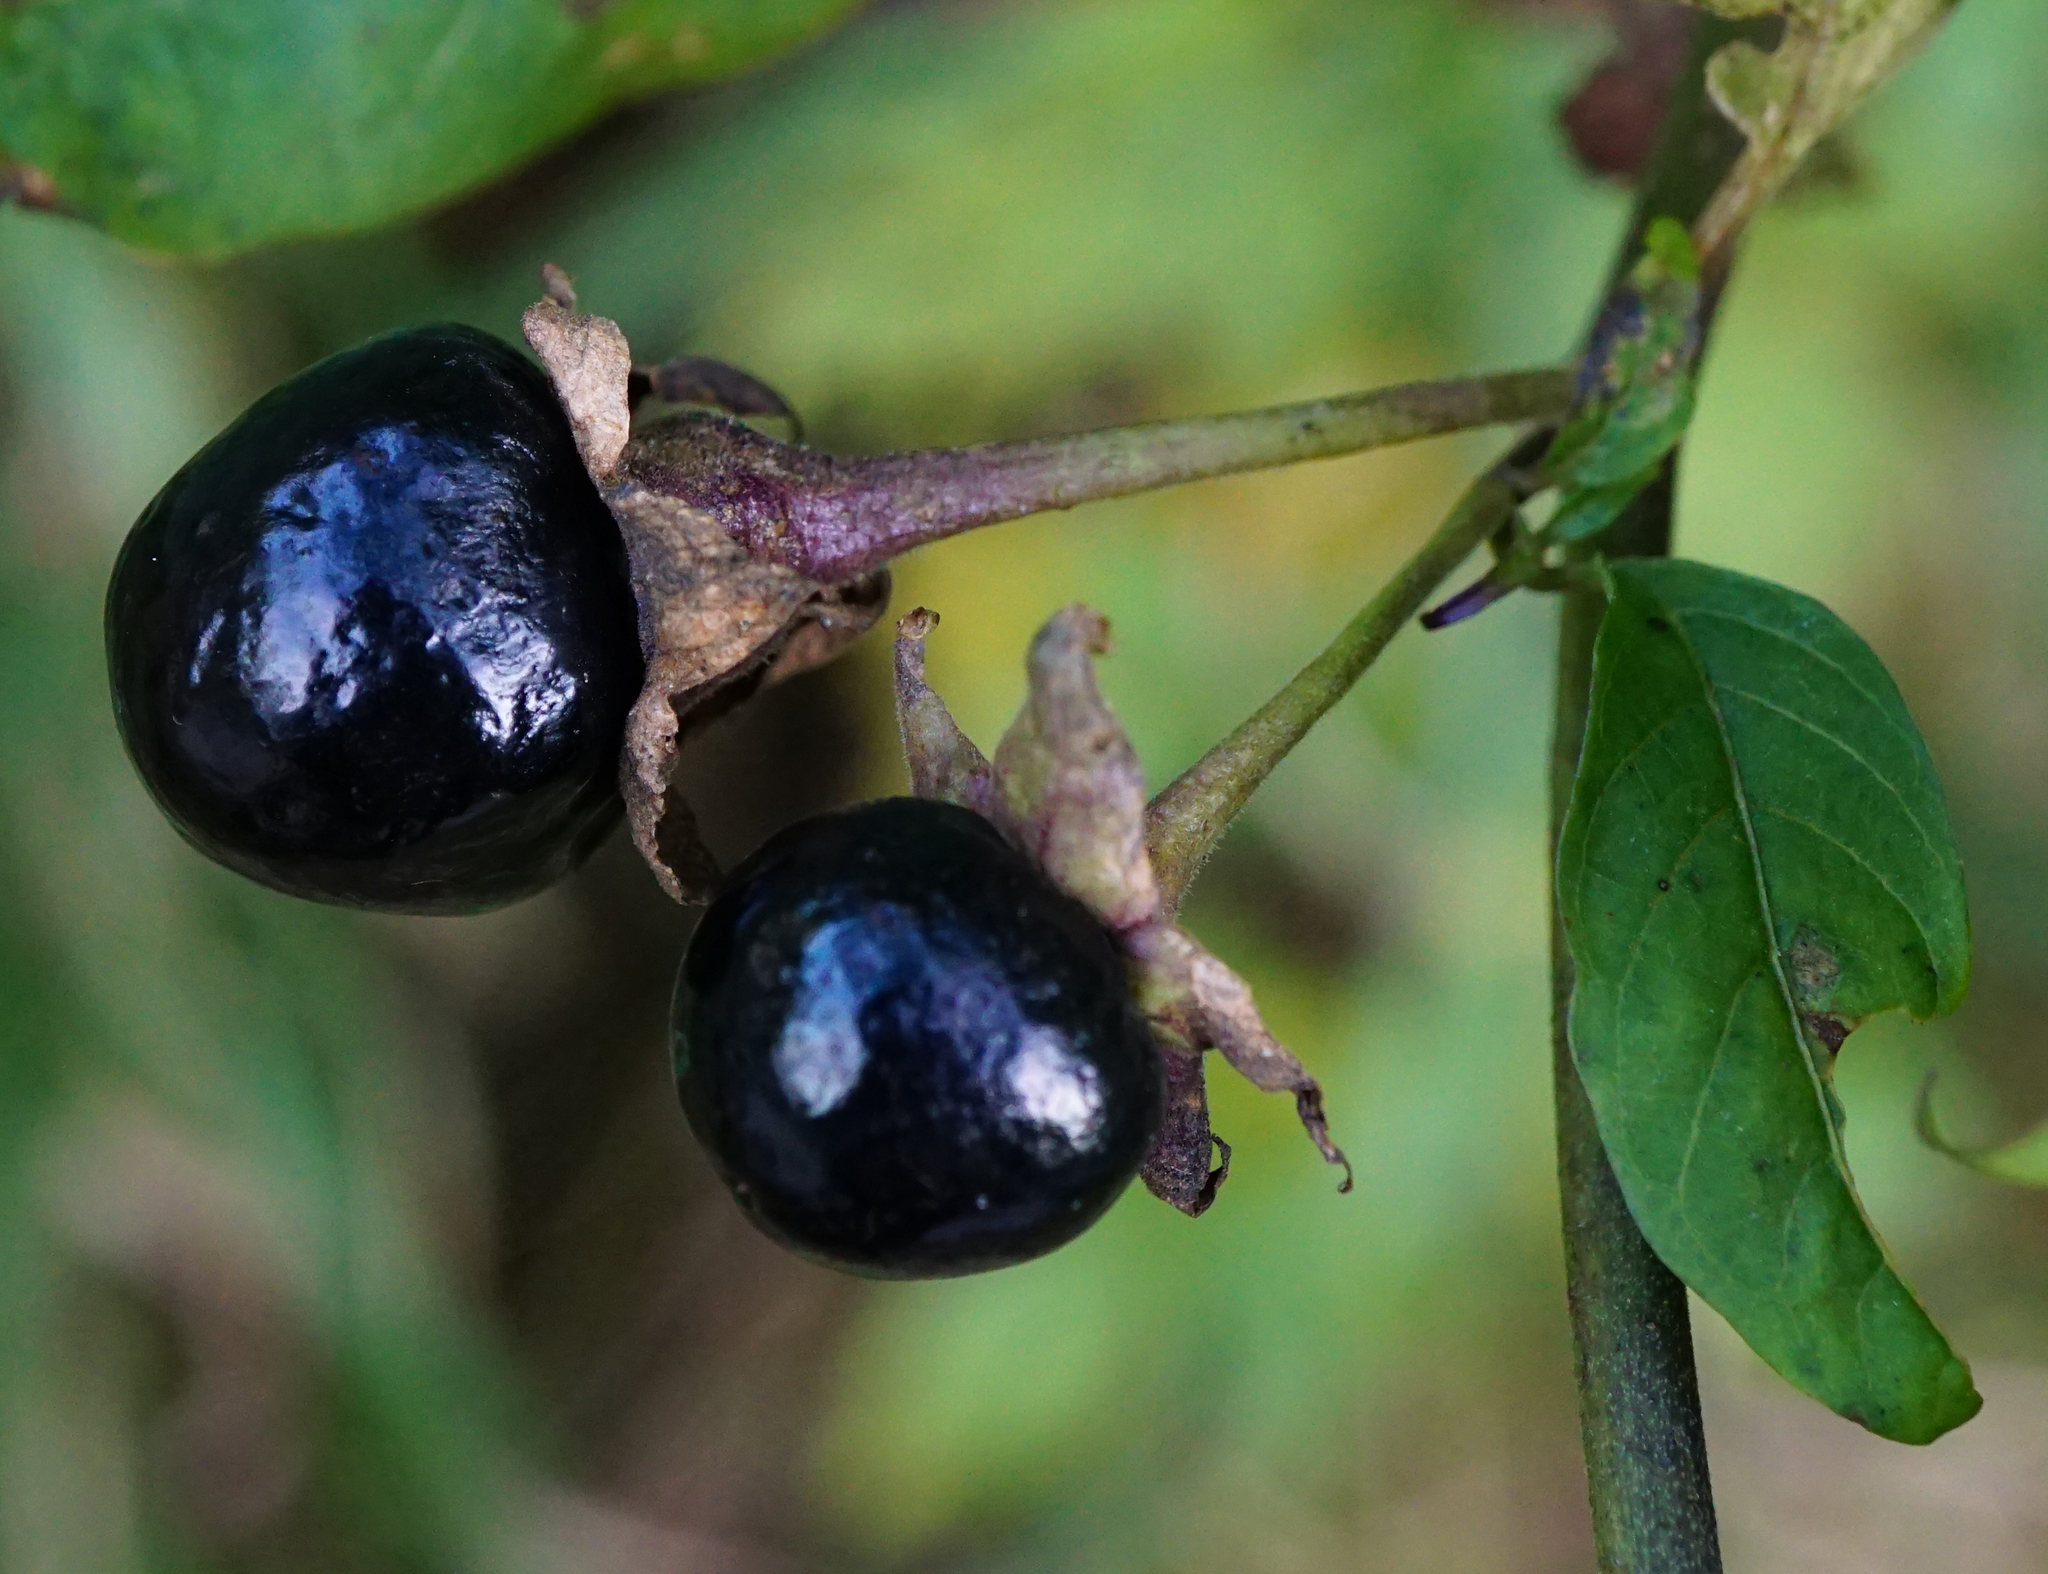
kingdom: Plantae
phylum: Tracheophyta
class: Magnoliopsida
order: Solanales
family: Solanaceae
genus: Atropa
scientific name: Atropa belladonna
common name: Deadly nightshade
